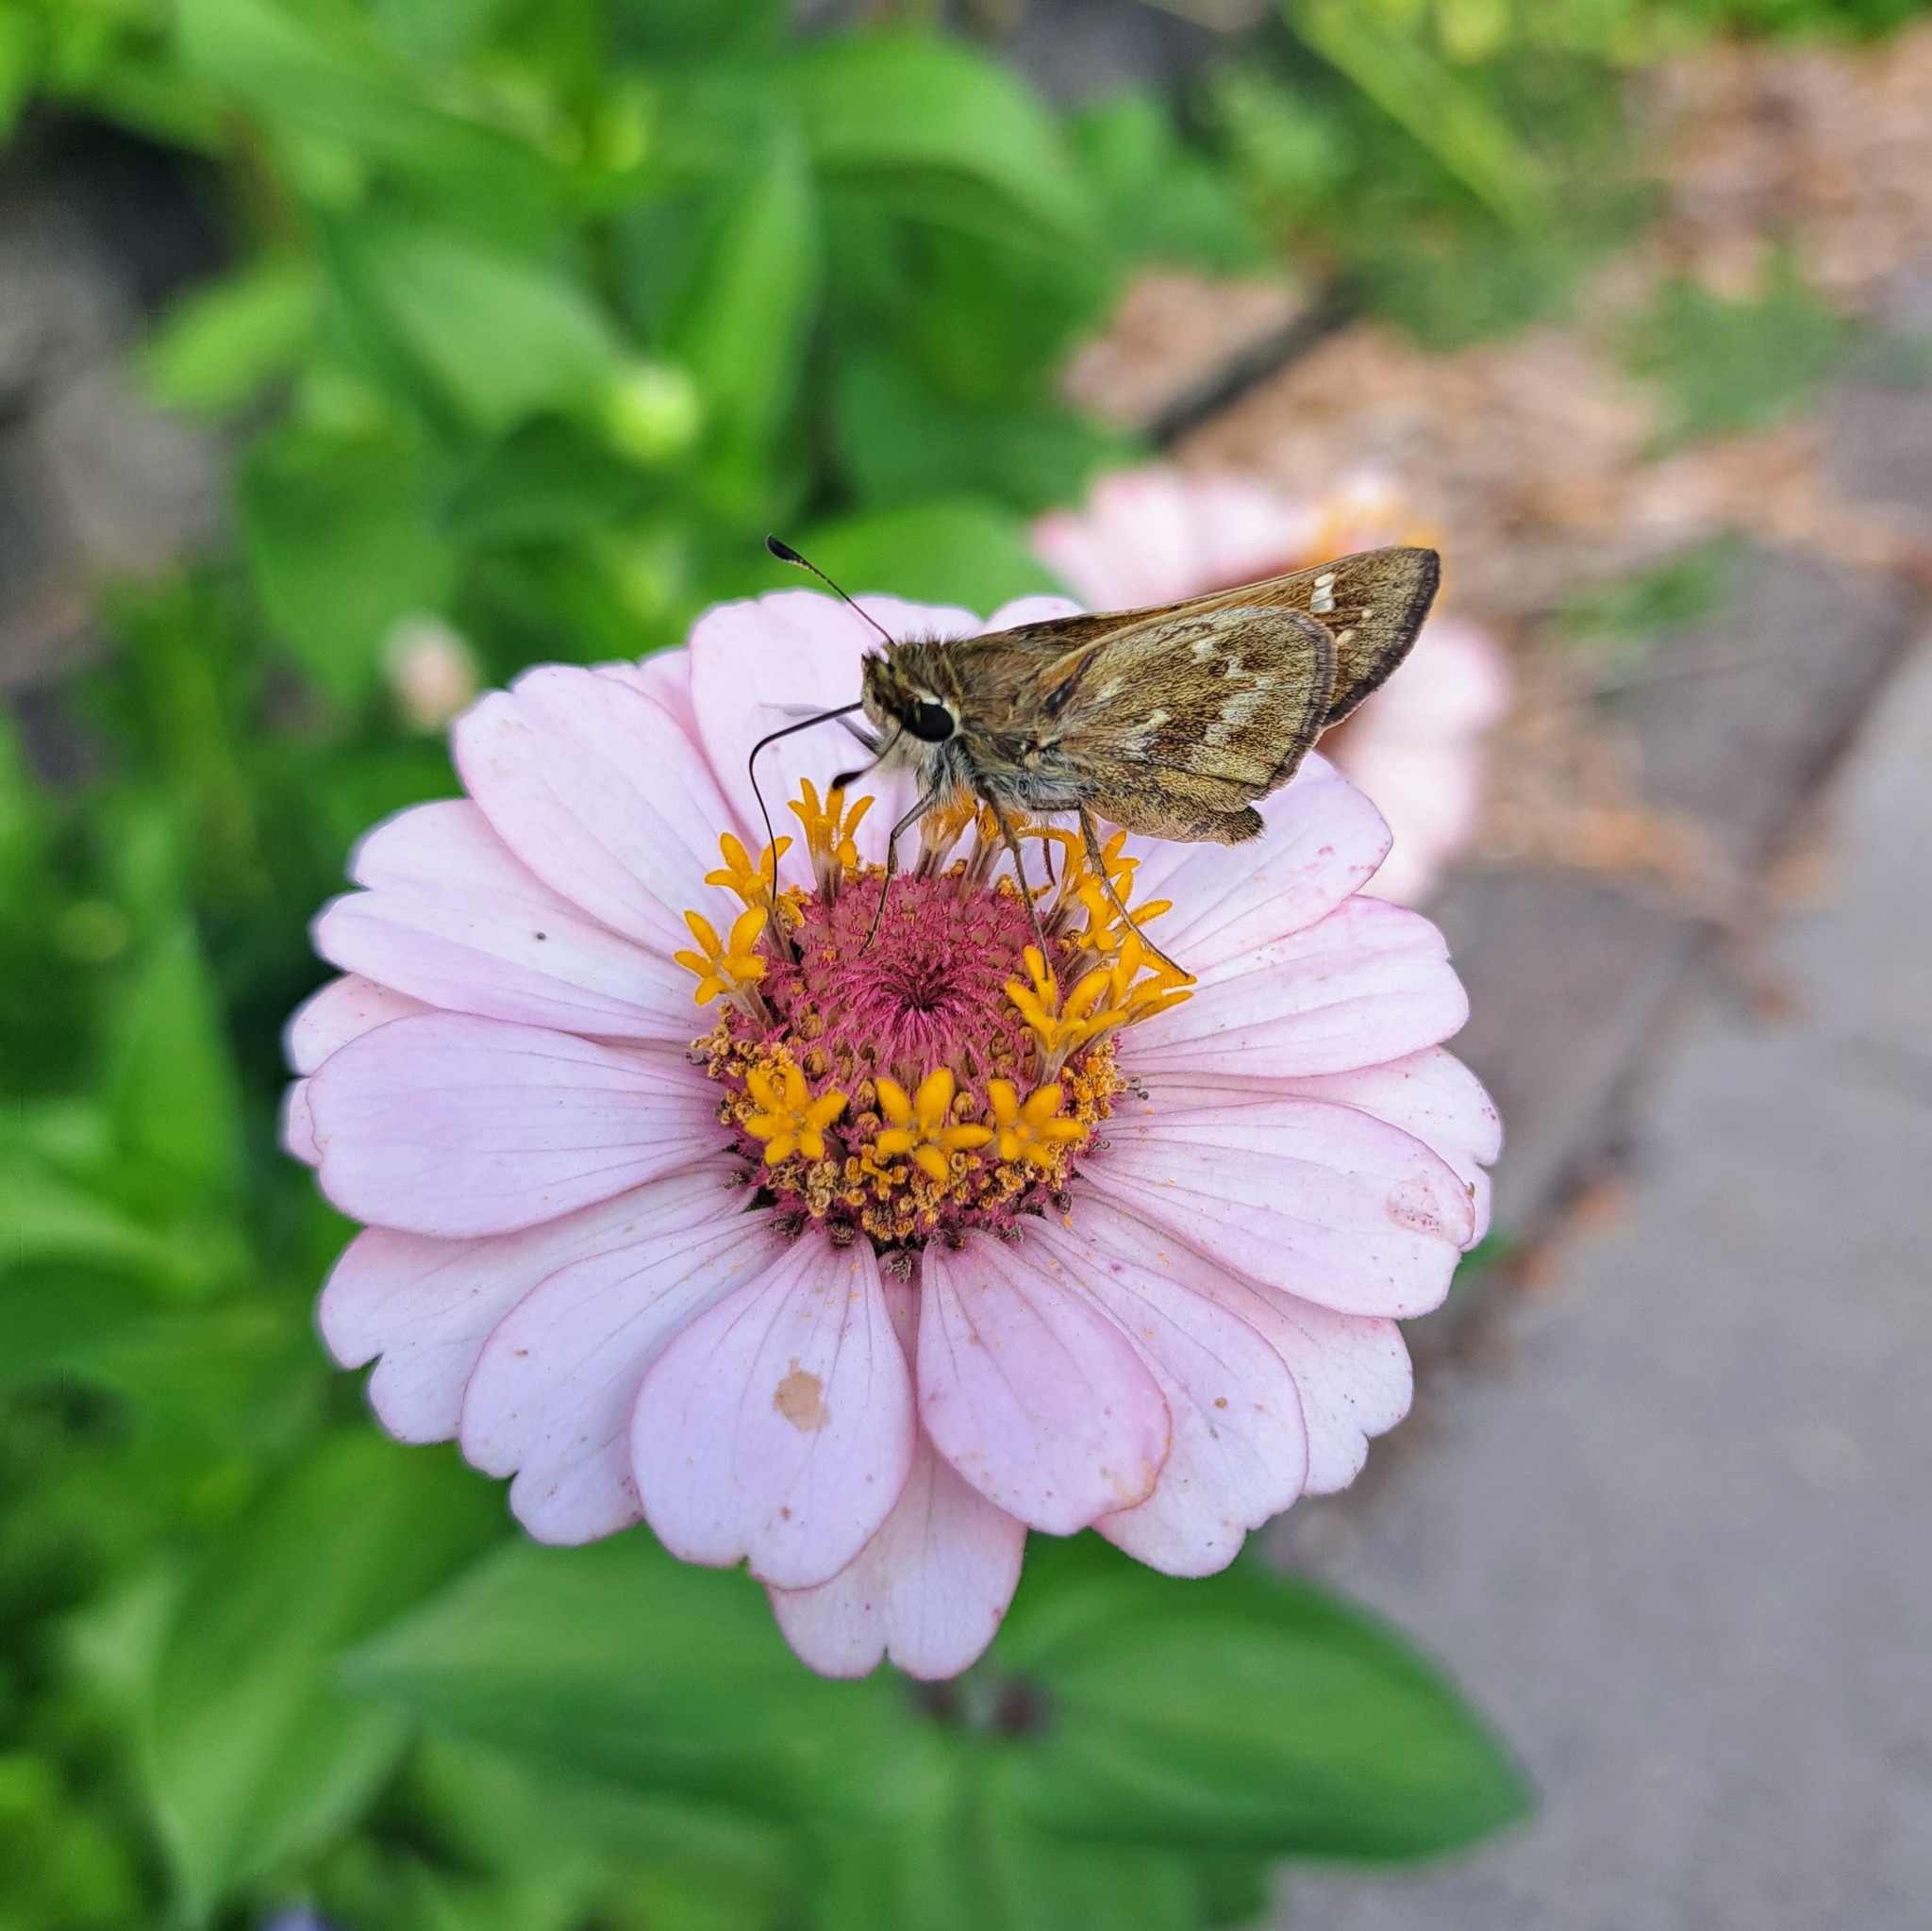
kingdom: Animalia
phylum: Arthropoda
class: Insecta
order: Lepidoptera
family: Hesperiidae
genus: Atalopedes
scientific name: Atalopedes
